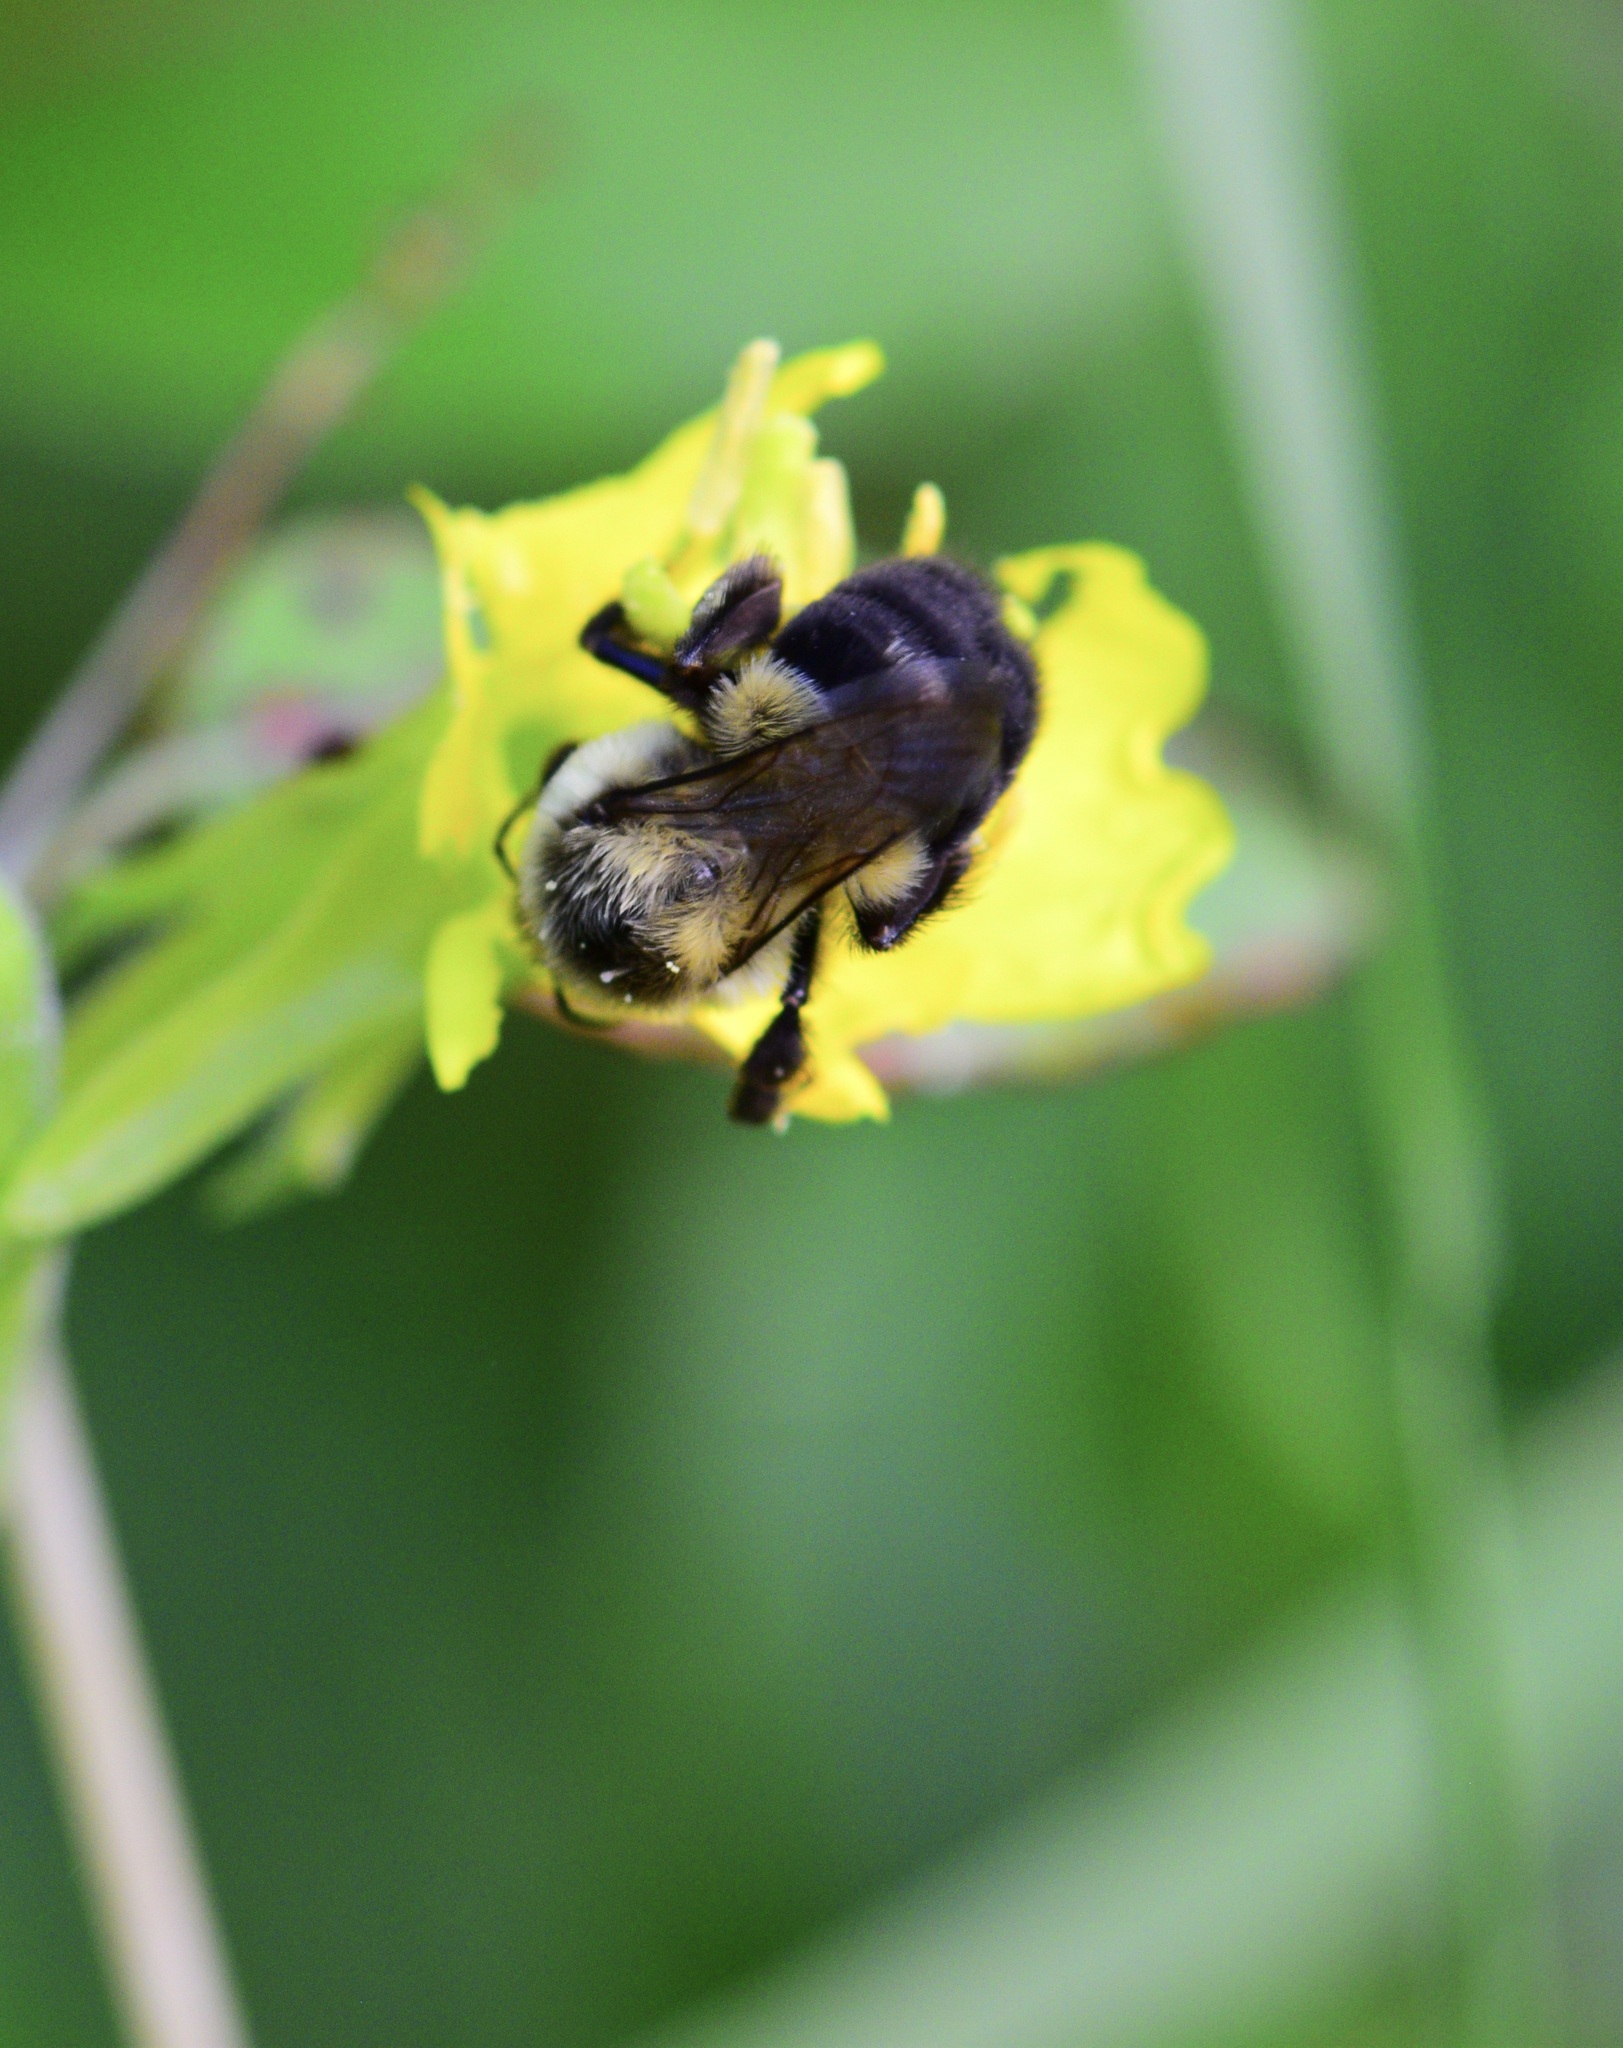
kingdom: Animalia
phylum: Arthropoda
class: Insecta
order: Hymenoptera
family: Apidae
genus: Bombus
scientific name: Bombus impatiens
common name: Common eastern bumble bee
